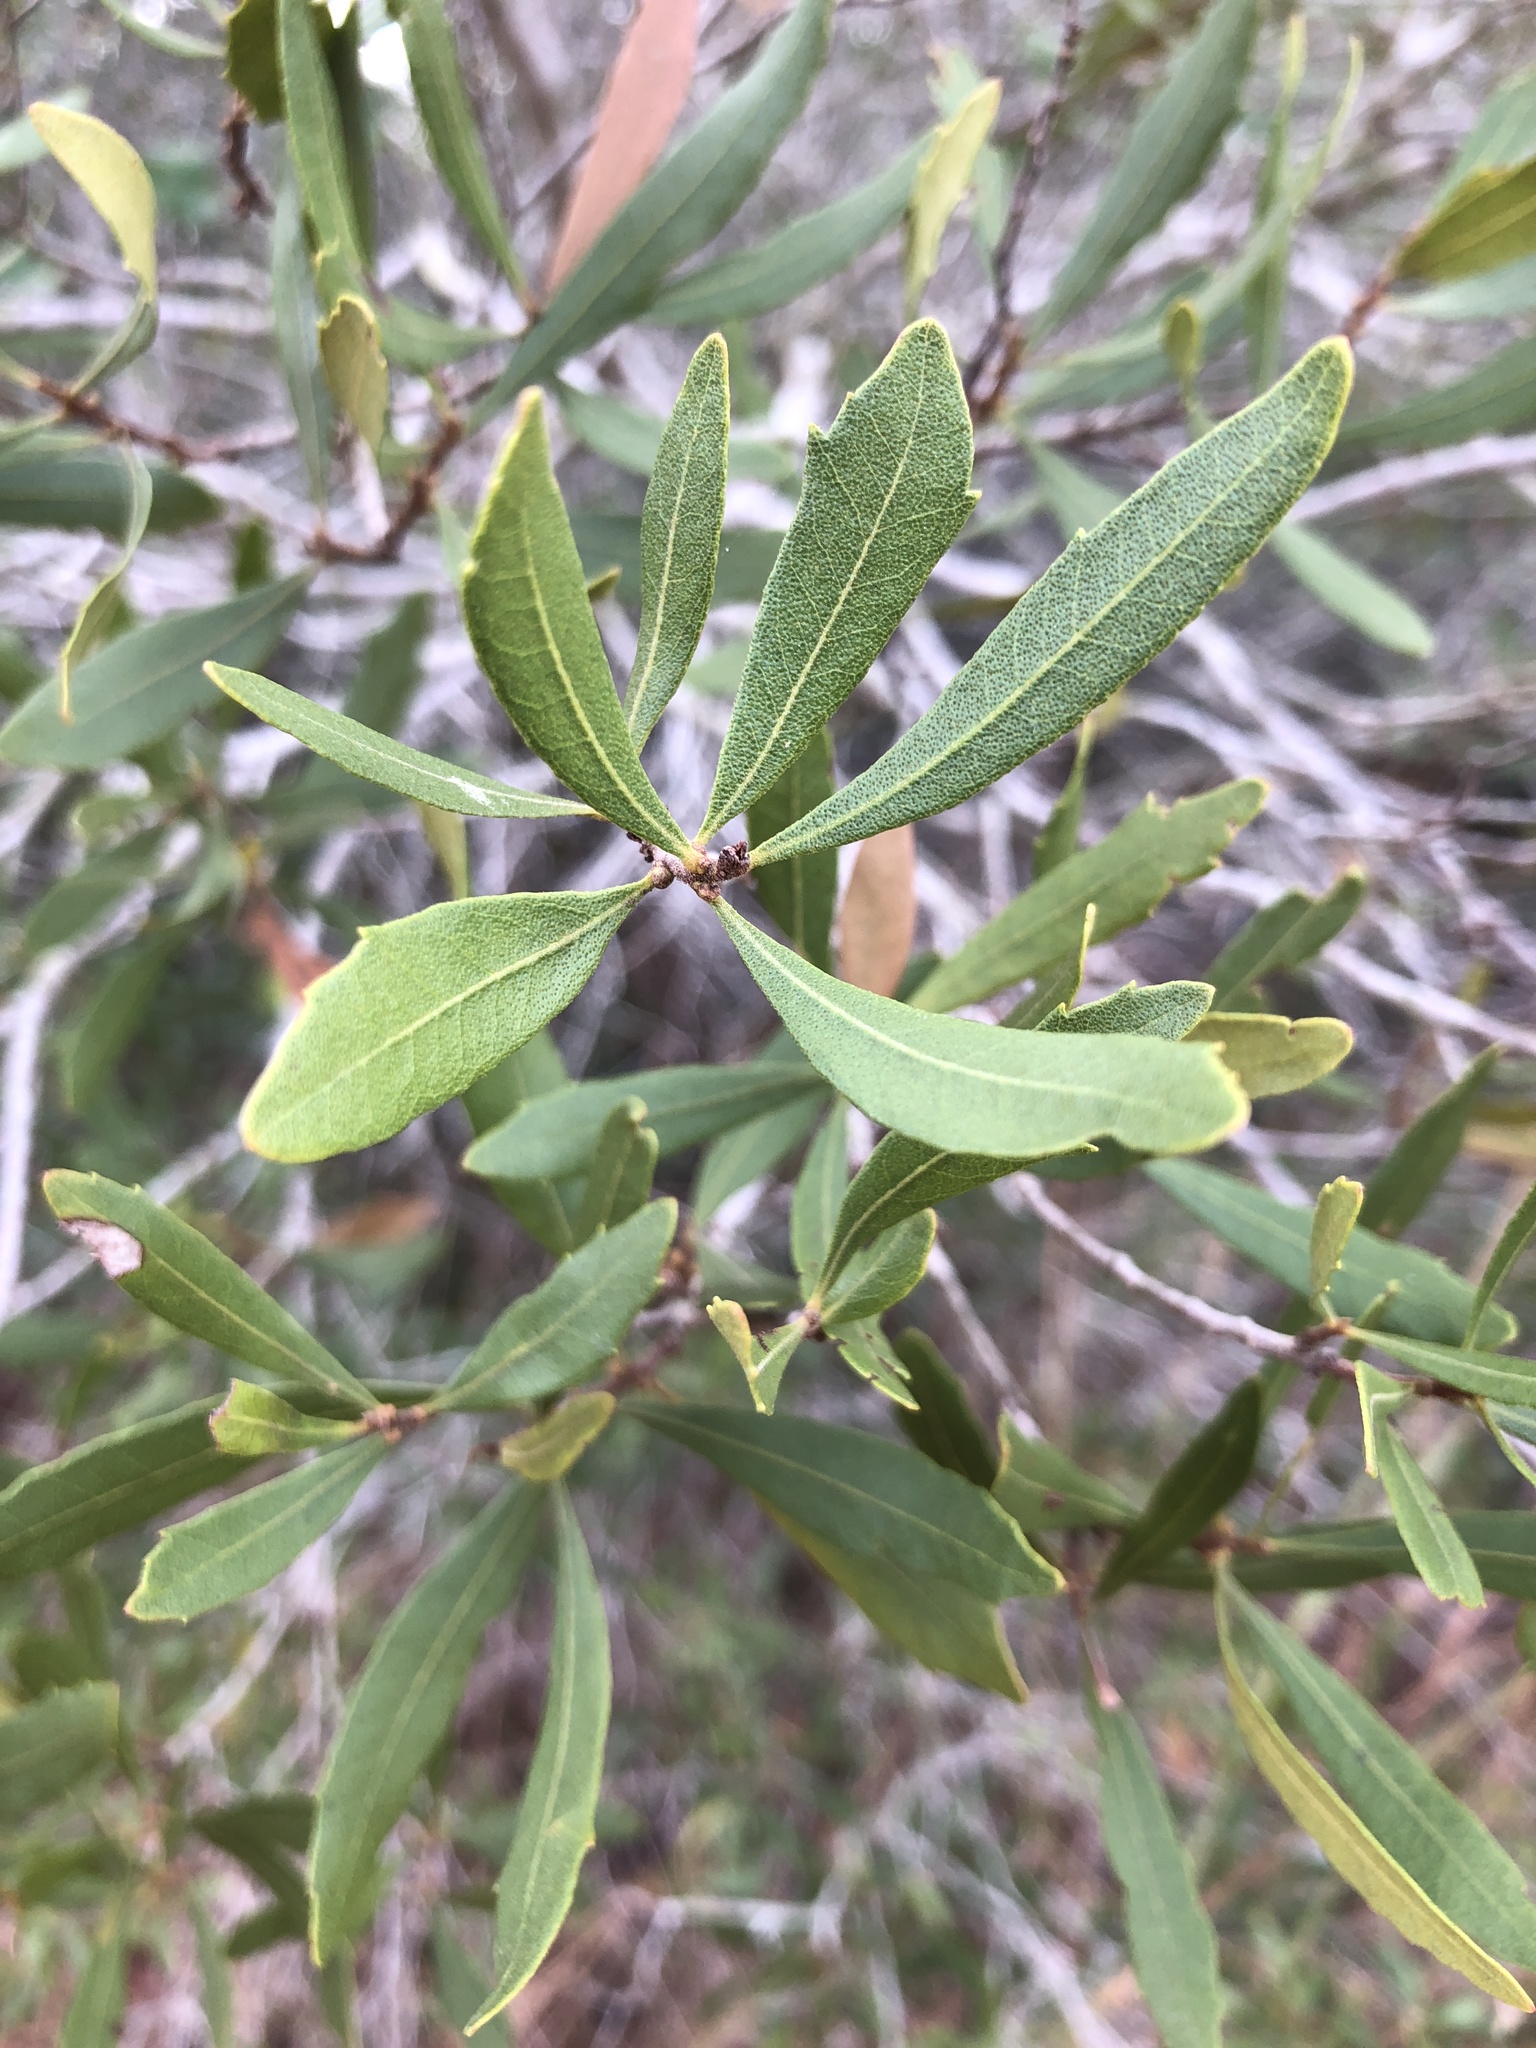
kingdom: Plantae
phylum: Tracheophyta
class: Magnoliopsida
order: Fagales
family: Myricaceae
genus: Morella
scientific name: Morella cerifera
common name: Wax myrtle
